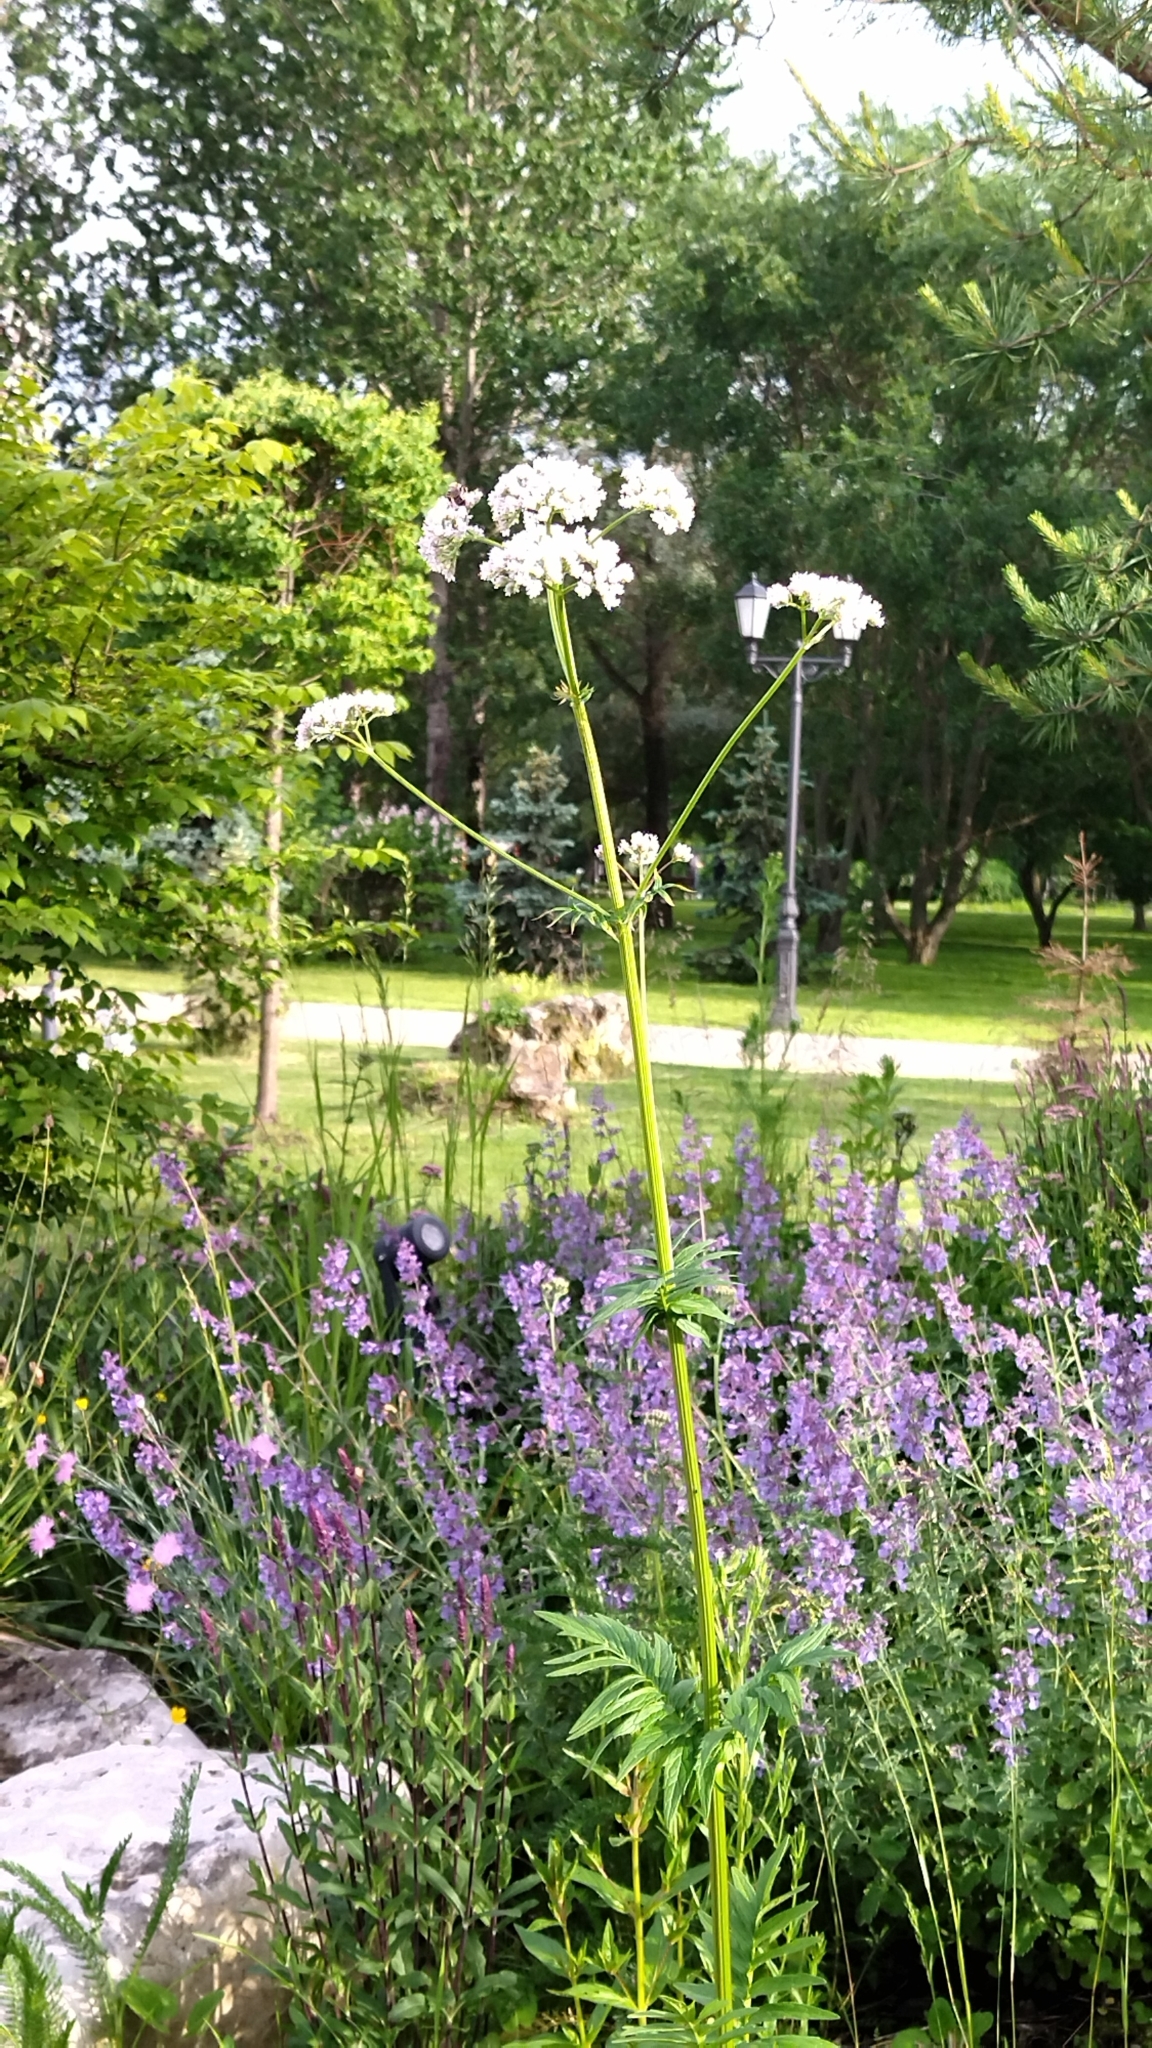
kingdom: Plantae
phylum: Tracheophyta
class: Magnoliopsida
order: Dipsacales
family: Caprifoliaceae
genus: Valeriana
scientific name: Valeriana officinalis
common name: Common valerian
